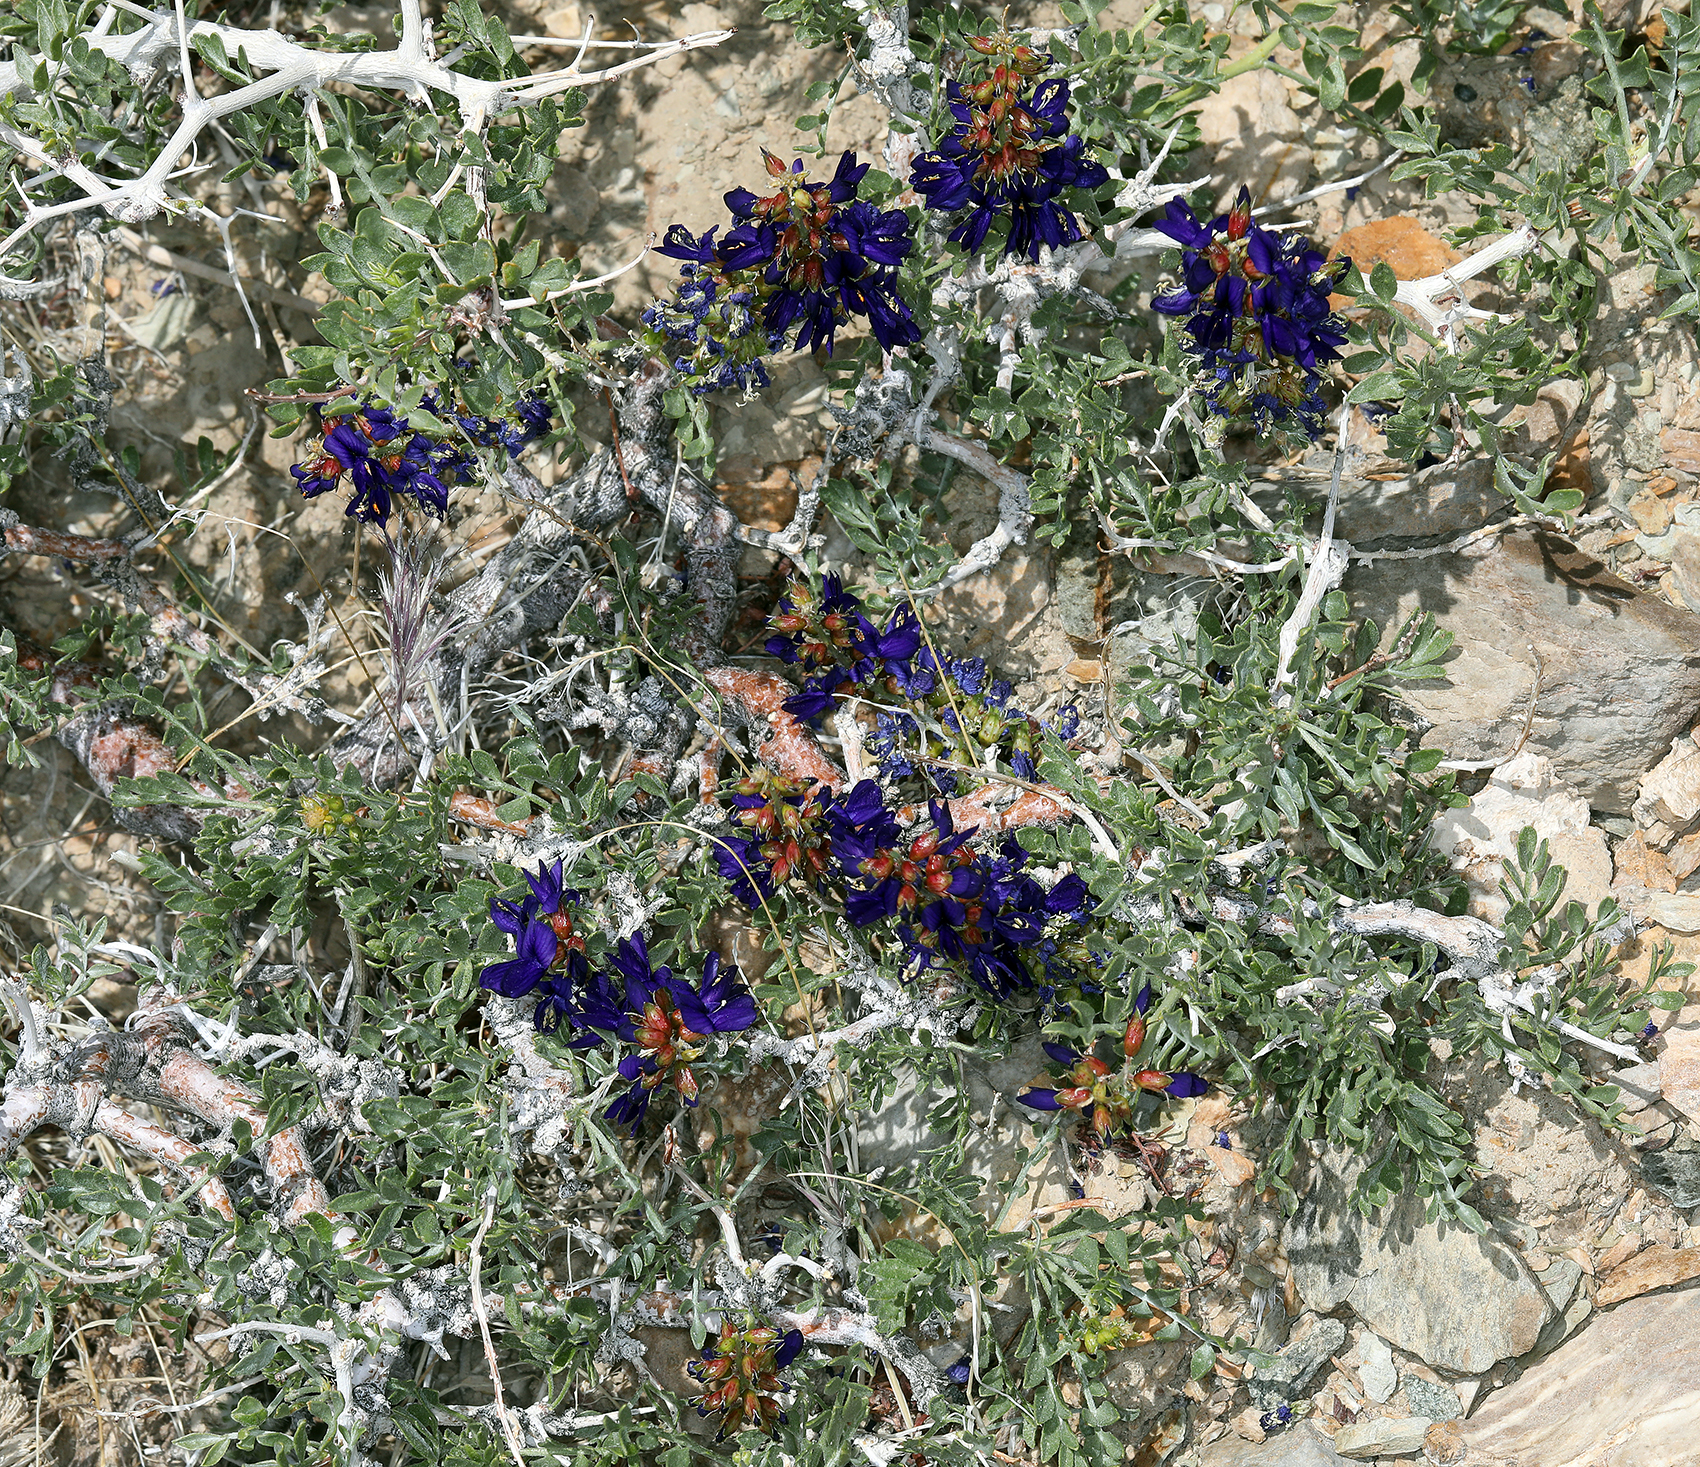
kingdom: Plantae
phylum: Tracheophyta
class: Magnoliopsida
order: Fabales
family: Fabaceae
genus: Psorothamnus
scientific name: Psorothamnus arborescens
